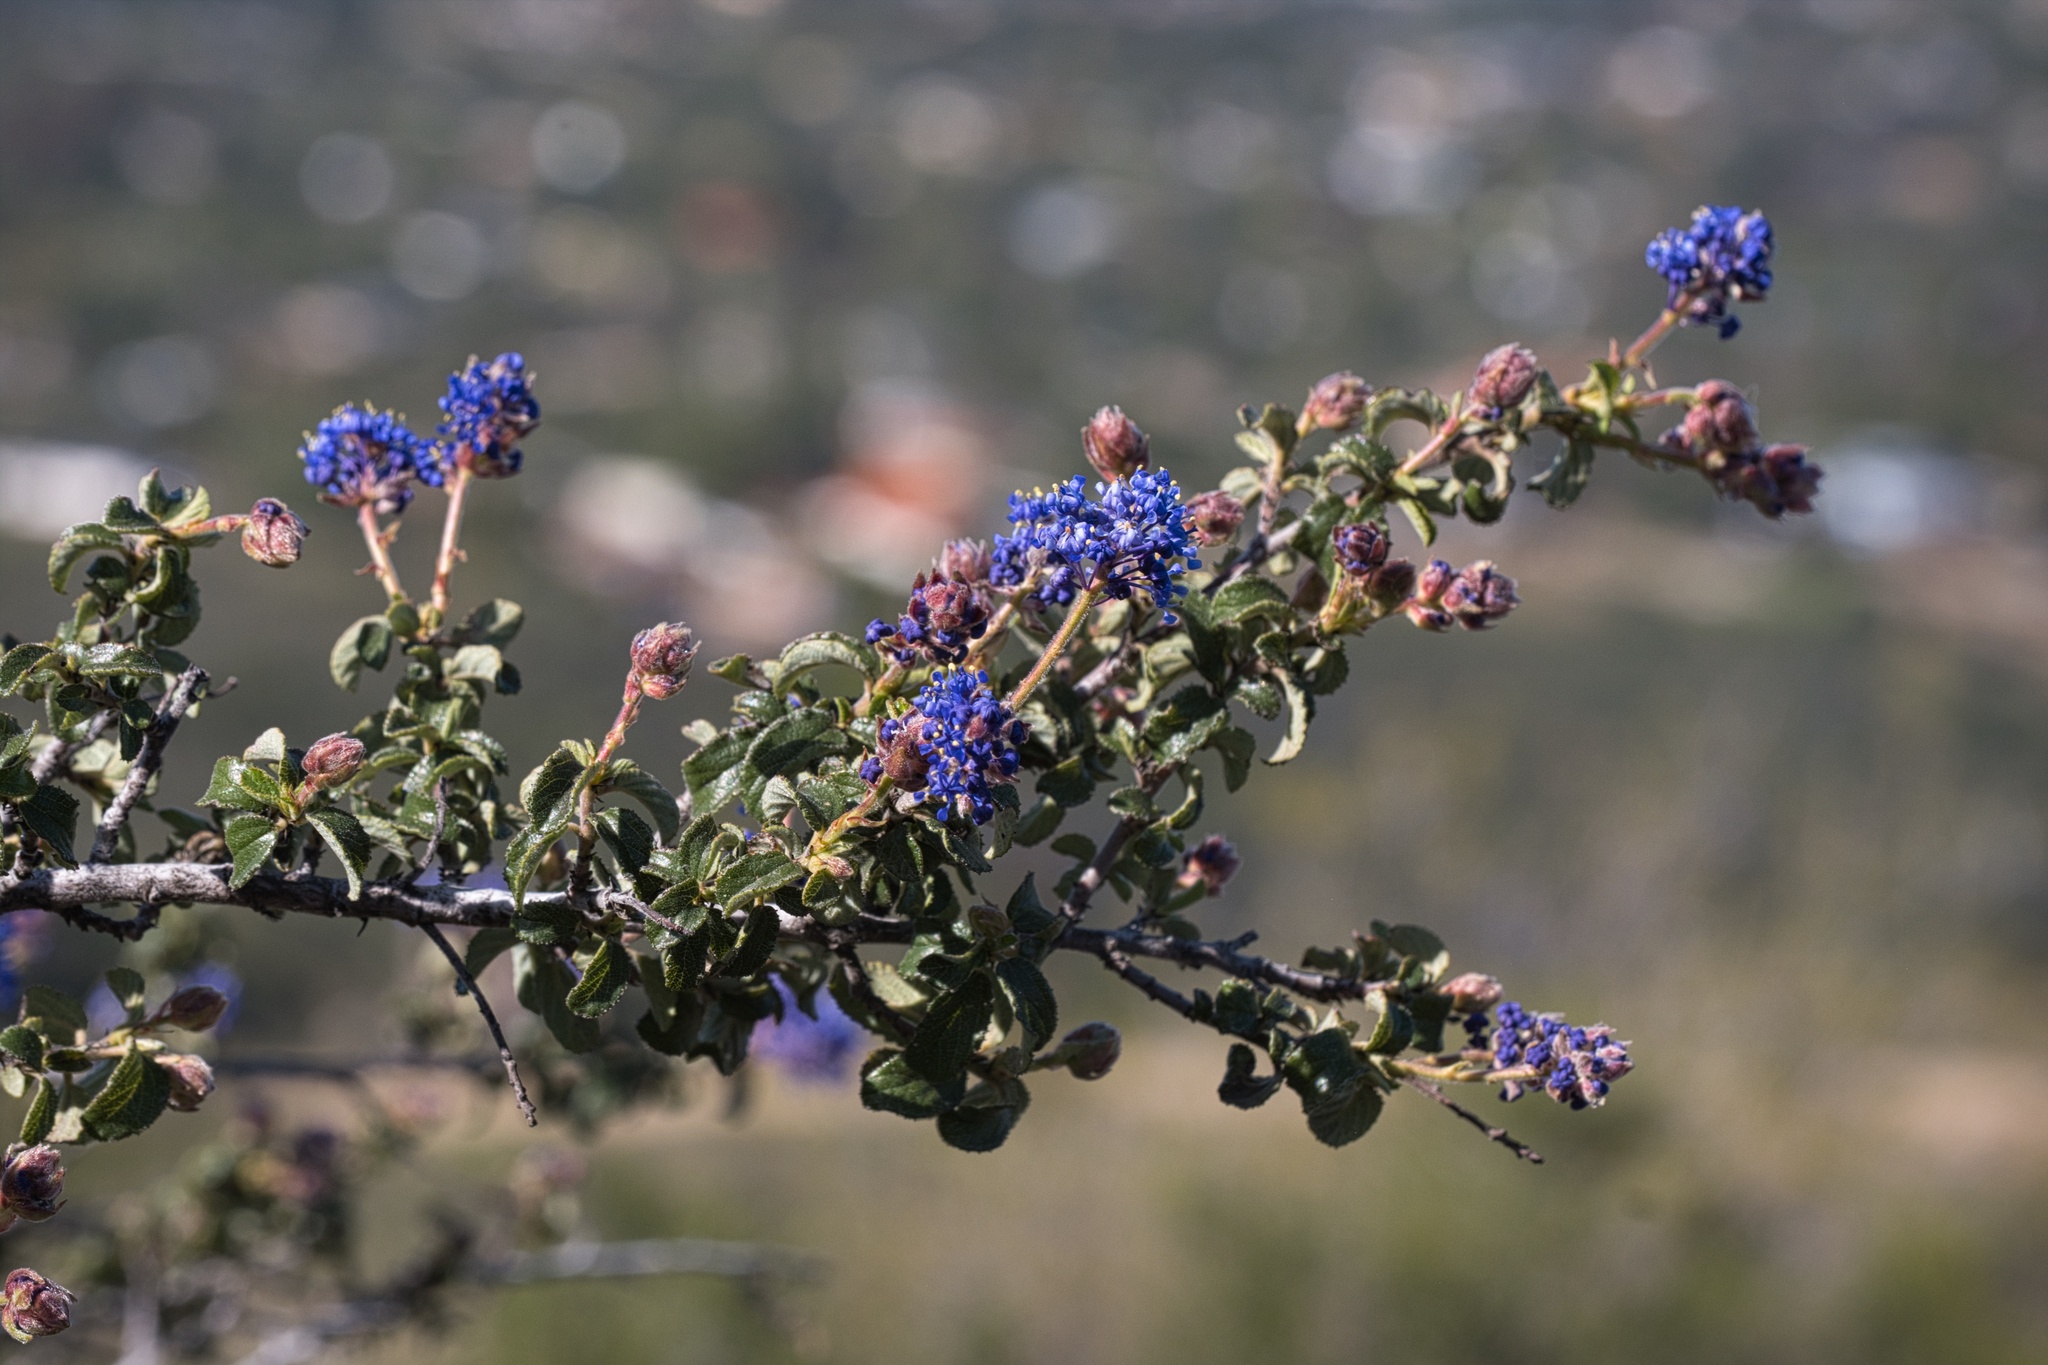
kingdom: Plantae
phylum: Tracheophyta
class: Magnoliopsida
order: Rosales
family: Rhamnaceae
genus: Ceanothus
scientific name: Ceanothus foliosus
